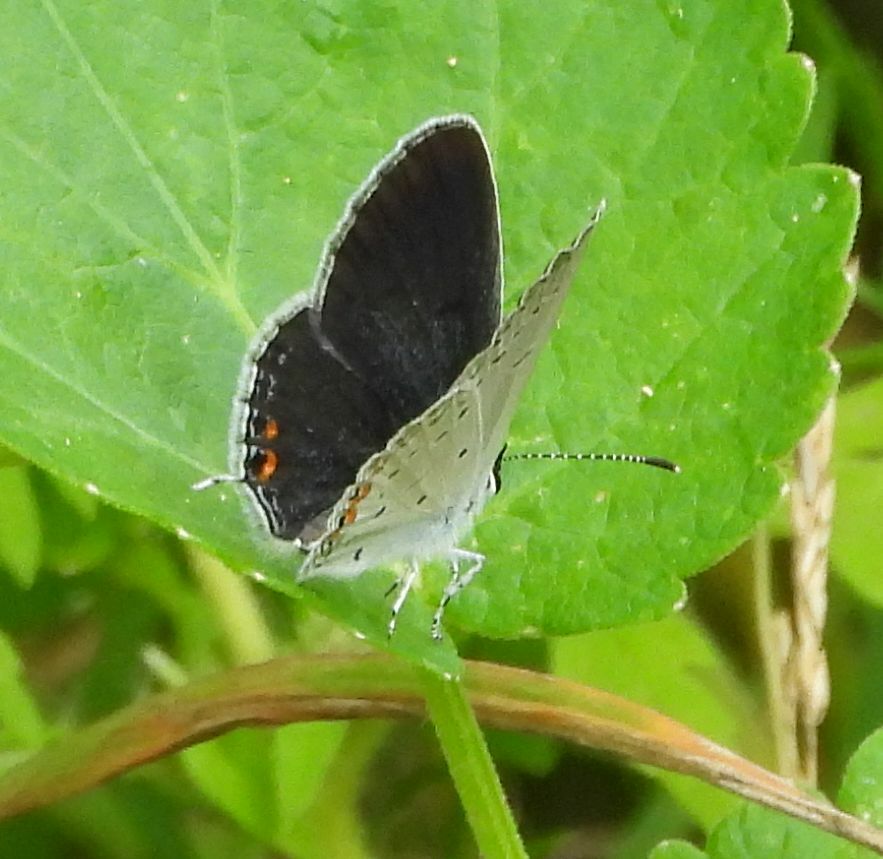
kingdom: Animalia
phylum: Arthropoda
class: Insecta
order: Lepidoptera
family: Lycaenidae
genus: Elkalyce
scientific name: Elkalyce comyntas
